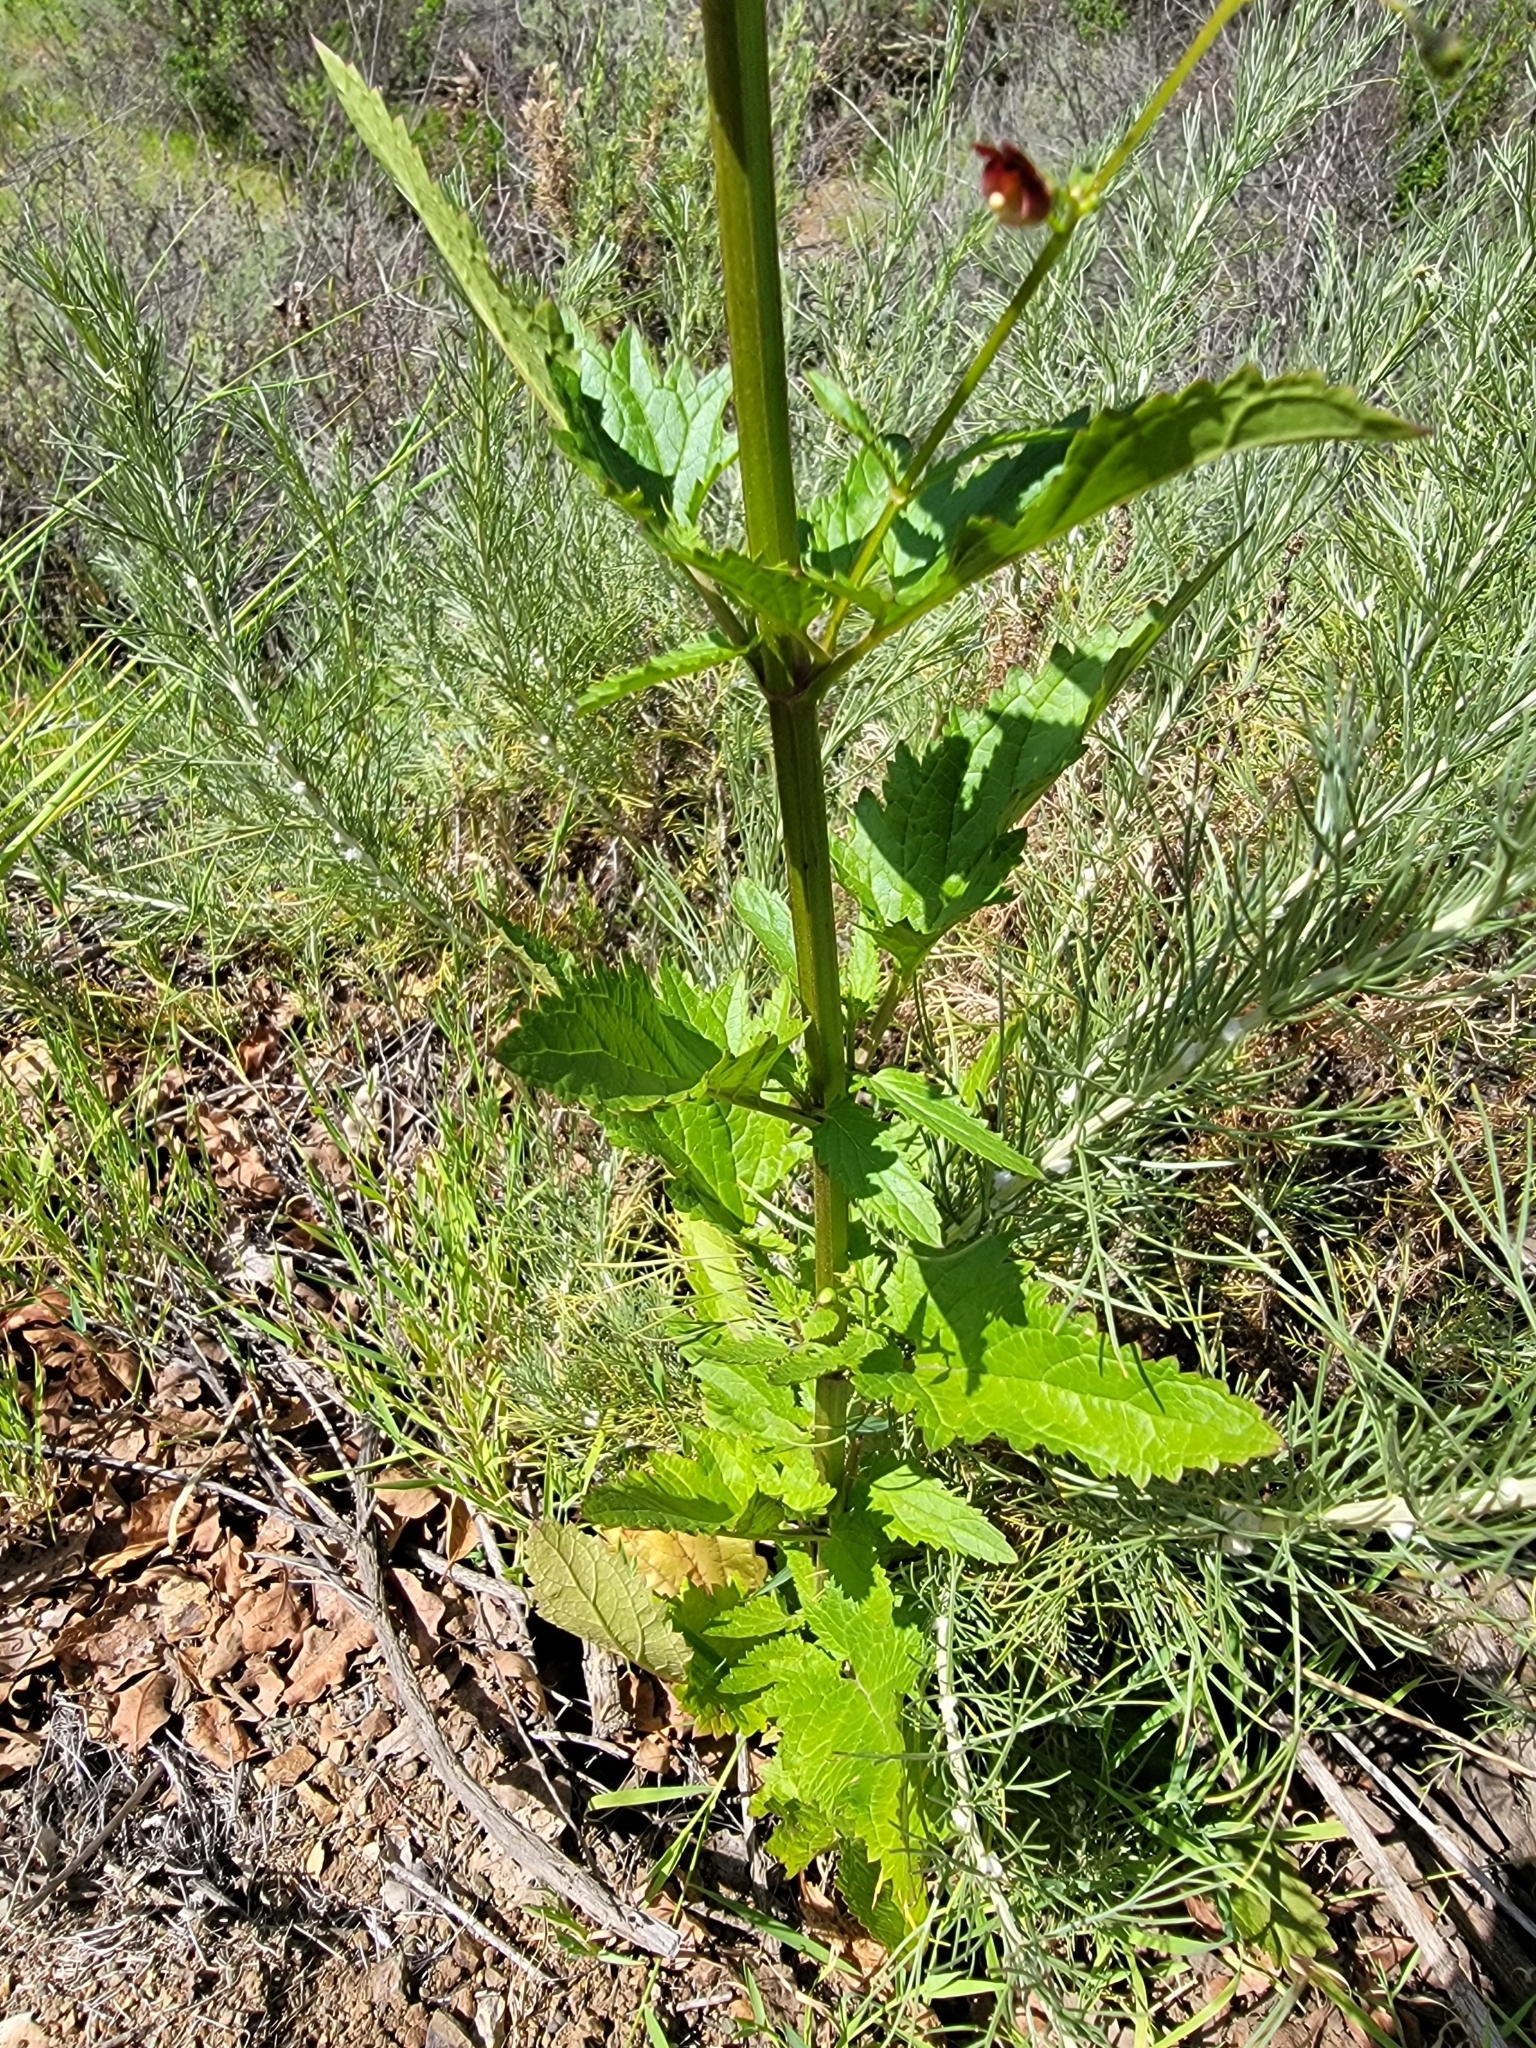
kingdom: Plantae
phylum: Tracheophyta
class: Magnoliopsida
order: Lamiales
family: Scrophulariaceae
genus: Scrophularia
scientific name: Scrophularia californica
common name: California figwort
